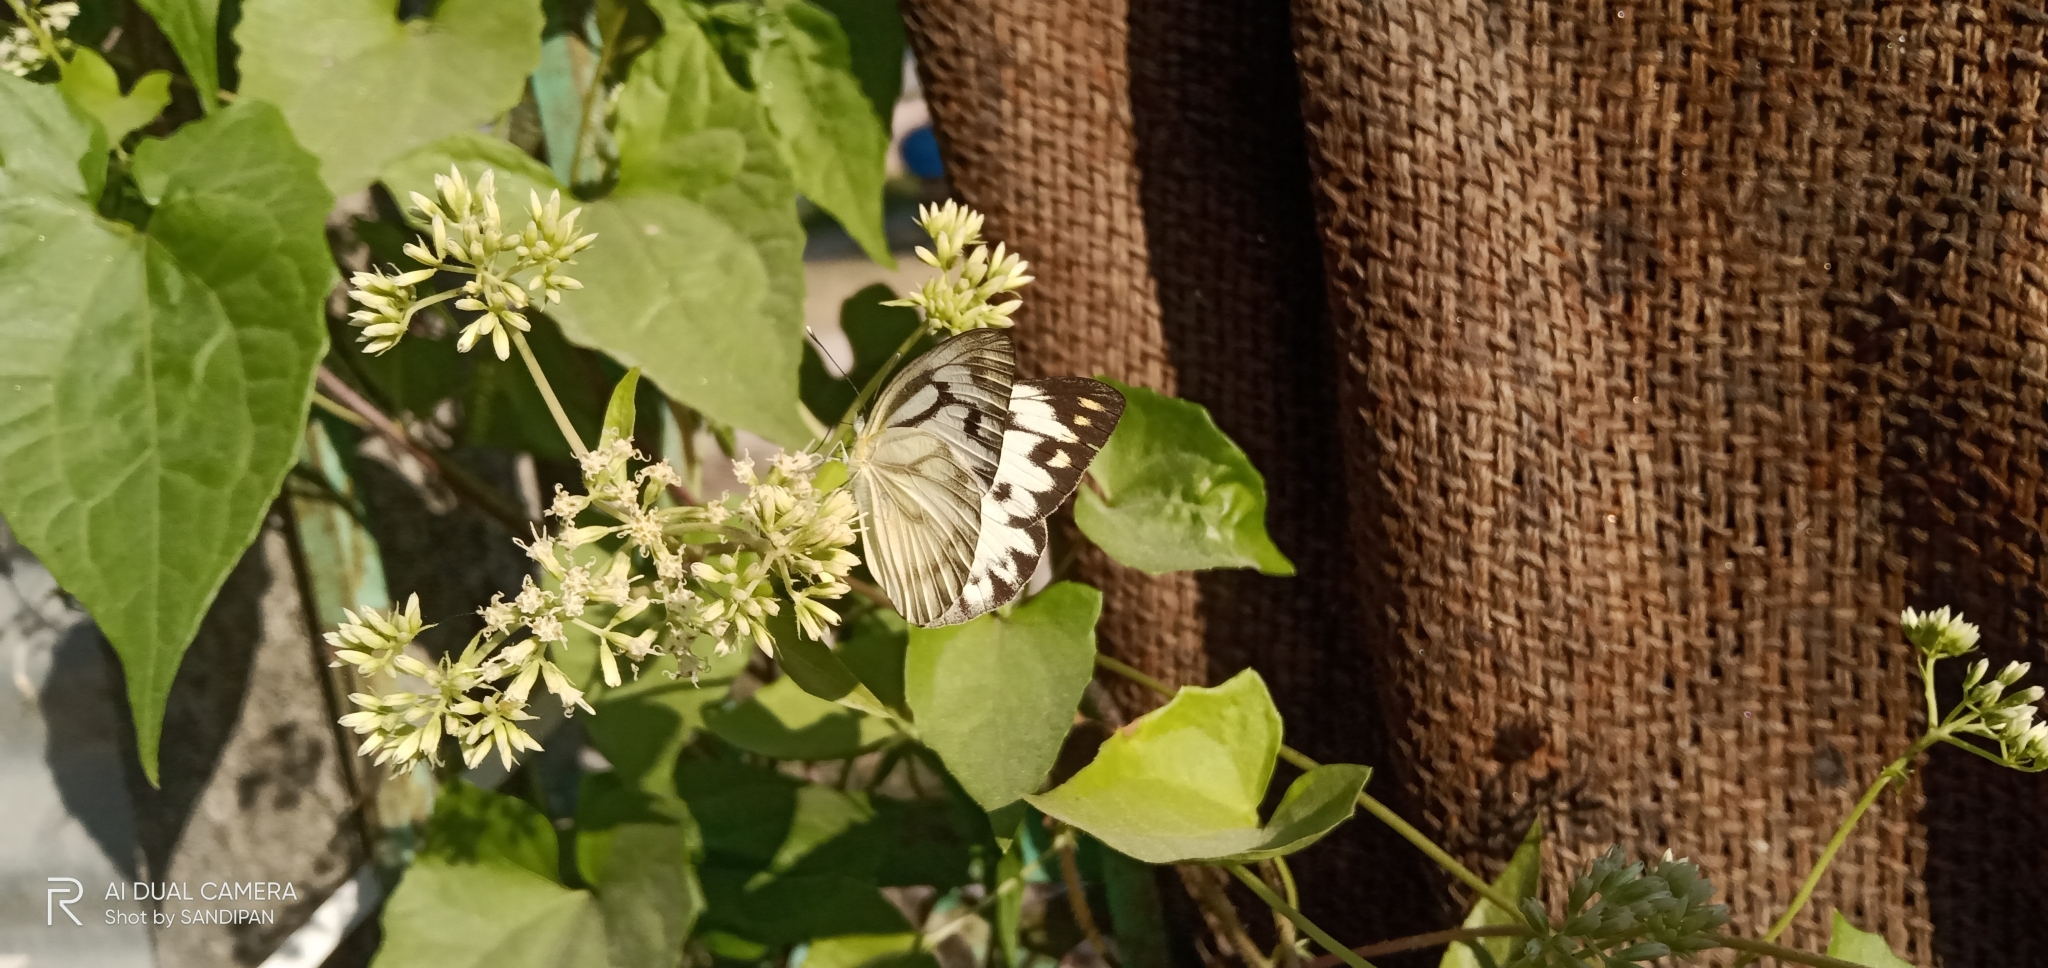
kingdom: Animalia
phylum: Arthropoda
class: Insecta
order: Lepidoptera
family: Pieridae
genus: Belenois
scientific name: Belenois aurota
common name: Brown-veined white
